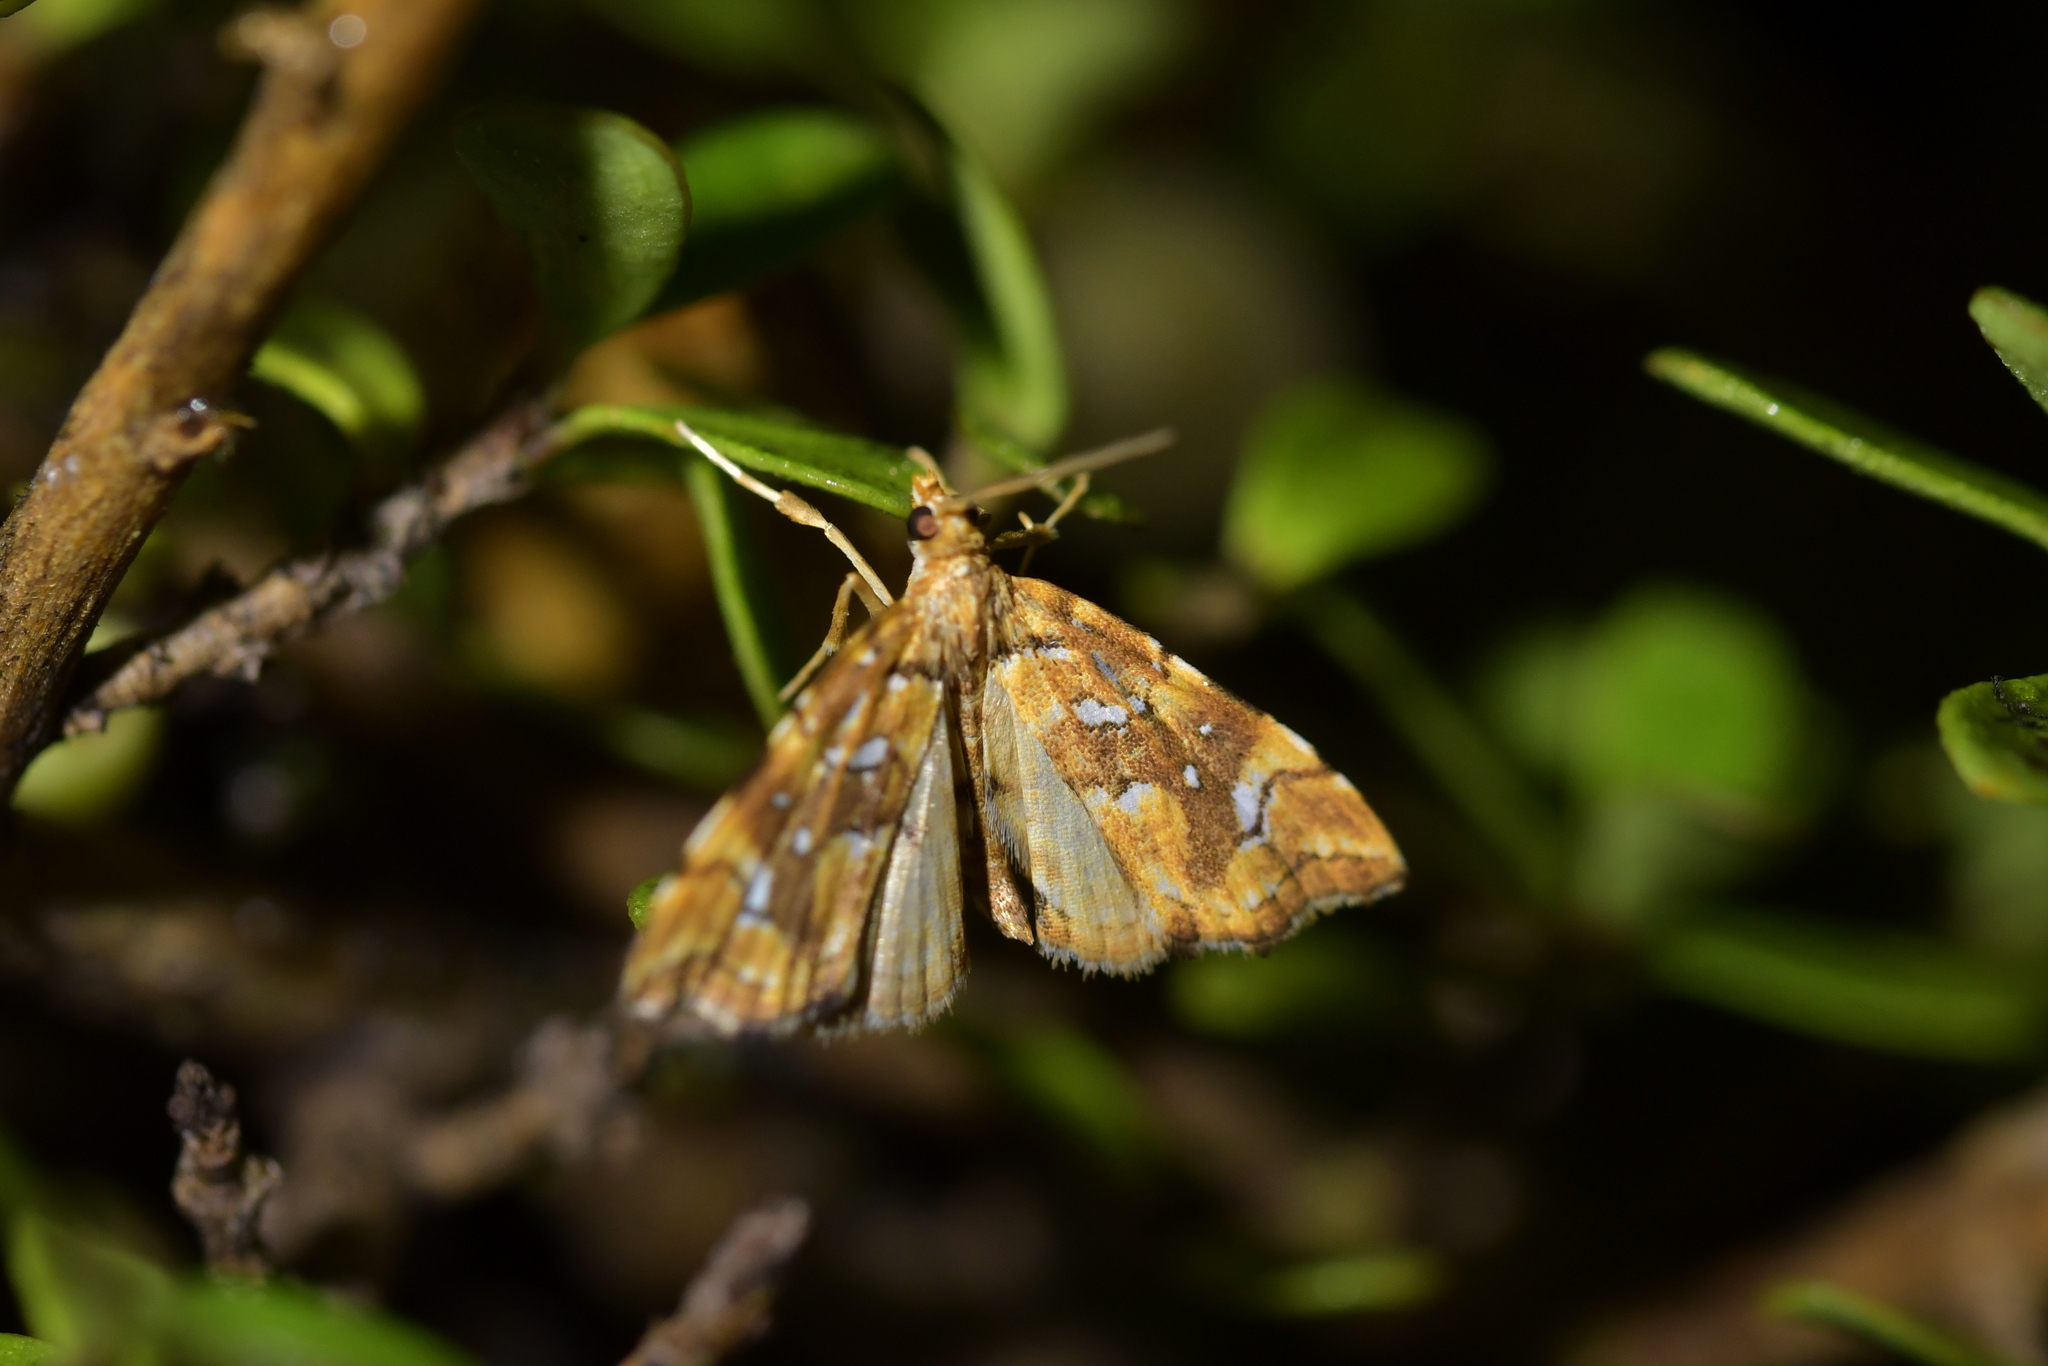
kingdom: Animalia
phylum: Arthropoda
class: Insecta
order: Lepidoptera
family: Pyralidae
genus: Musotima
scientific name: Musotima nitidalis
